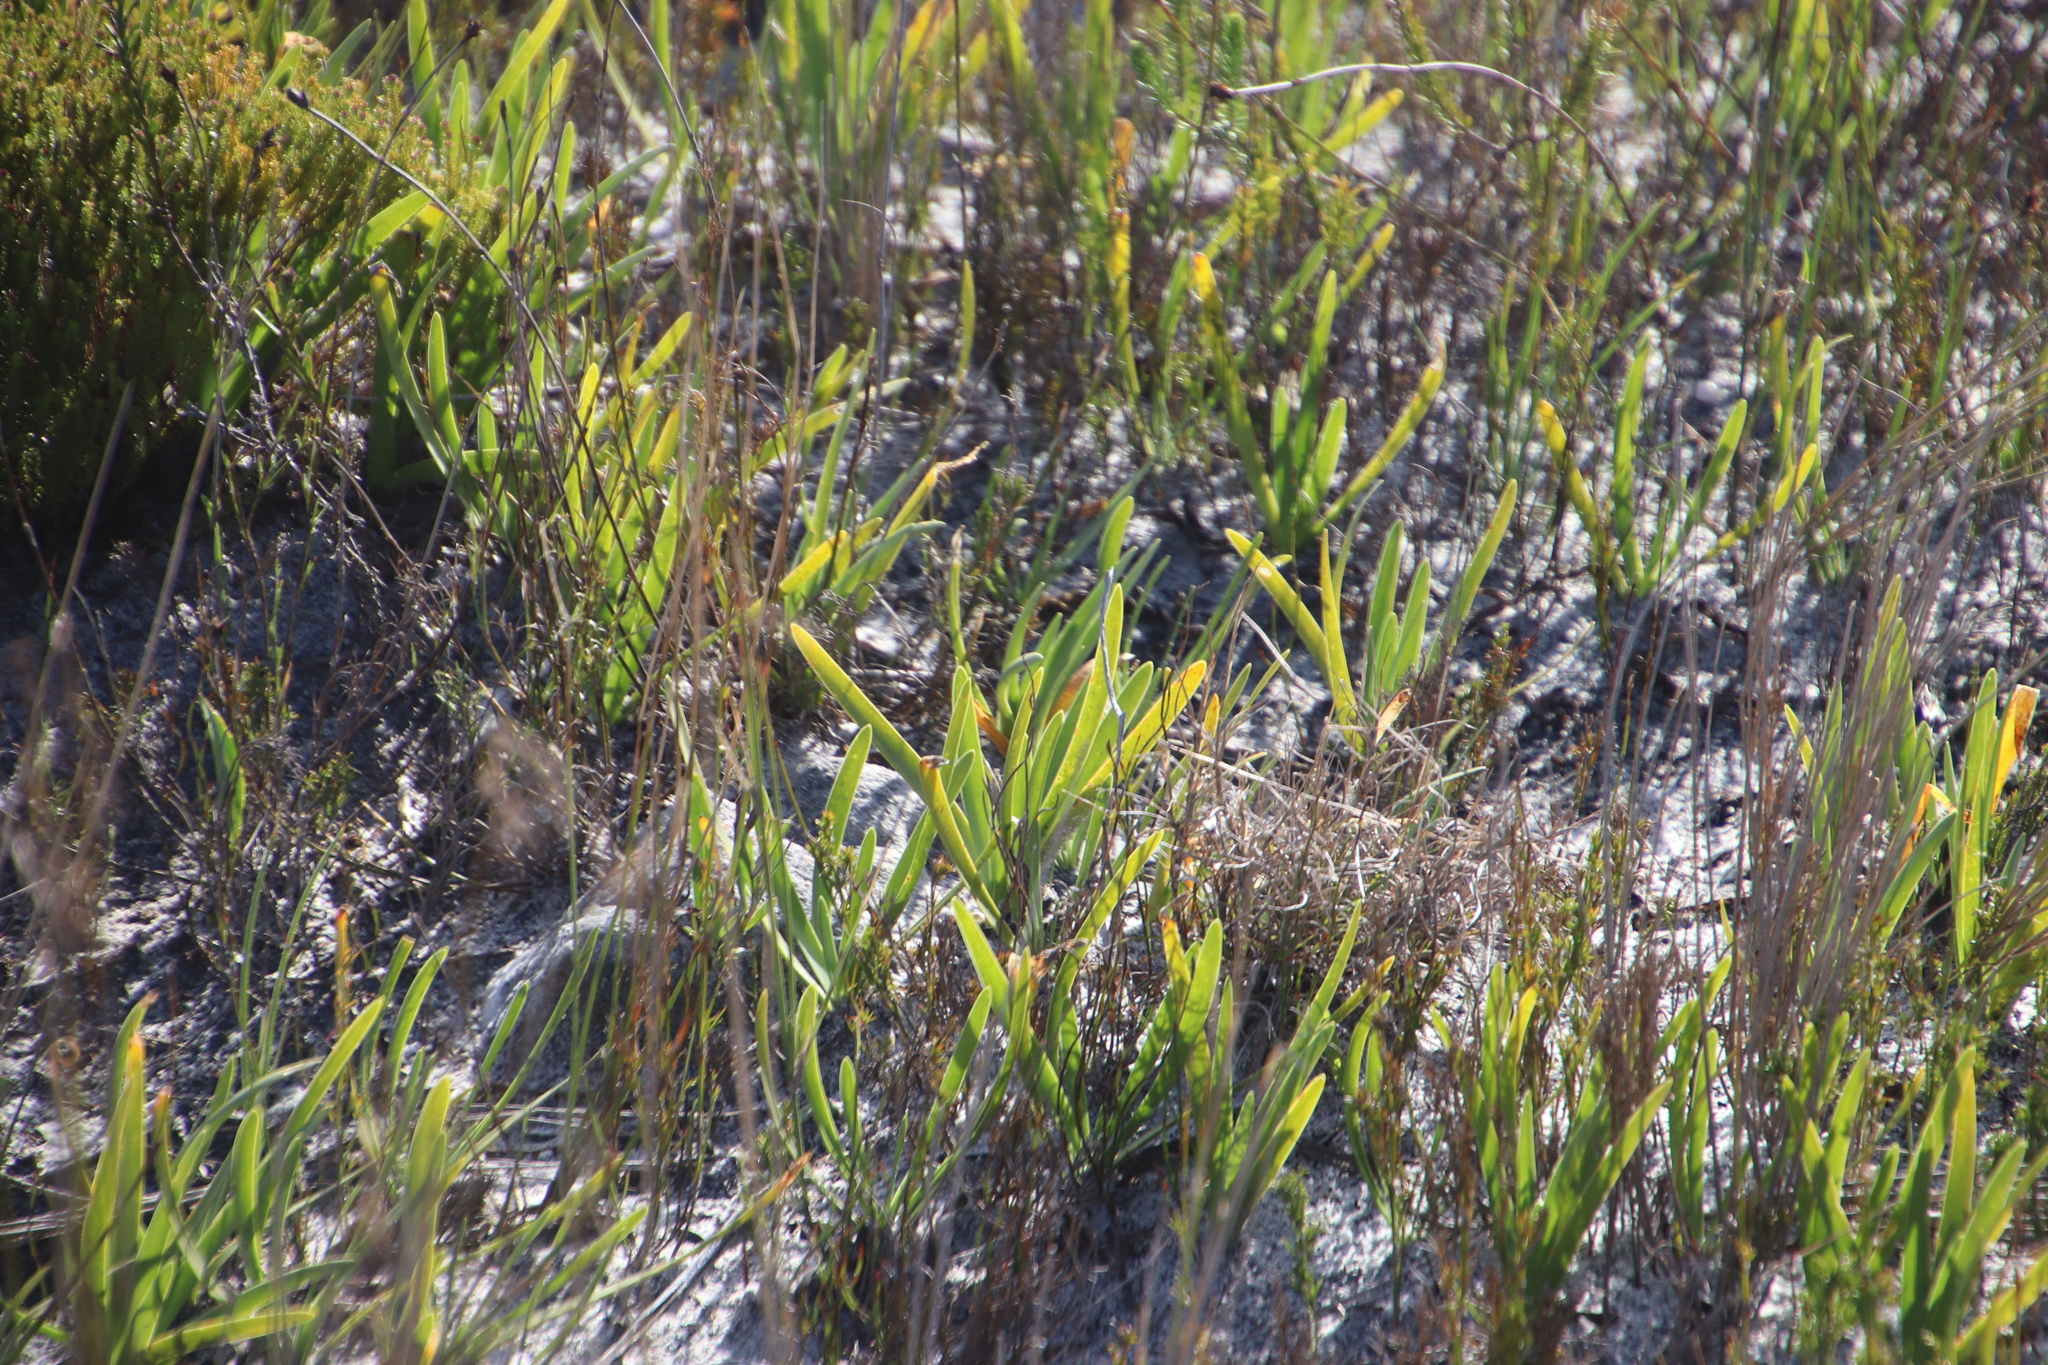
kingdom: Plantae
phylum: Tracheophyta
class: Liliopsida
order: Asparagales
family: Amaryllidaceae
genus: Agapanthus
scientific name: Agapanthus africanus
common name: Lily-of-the-nile
